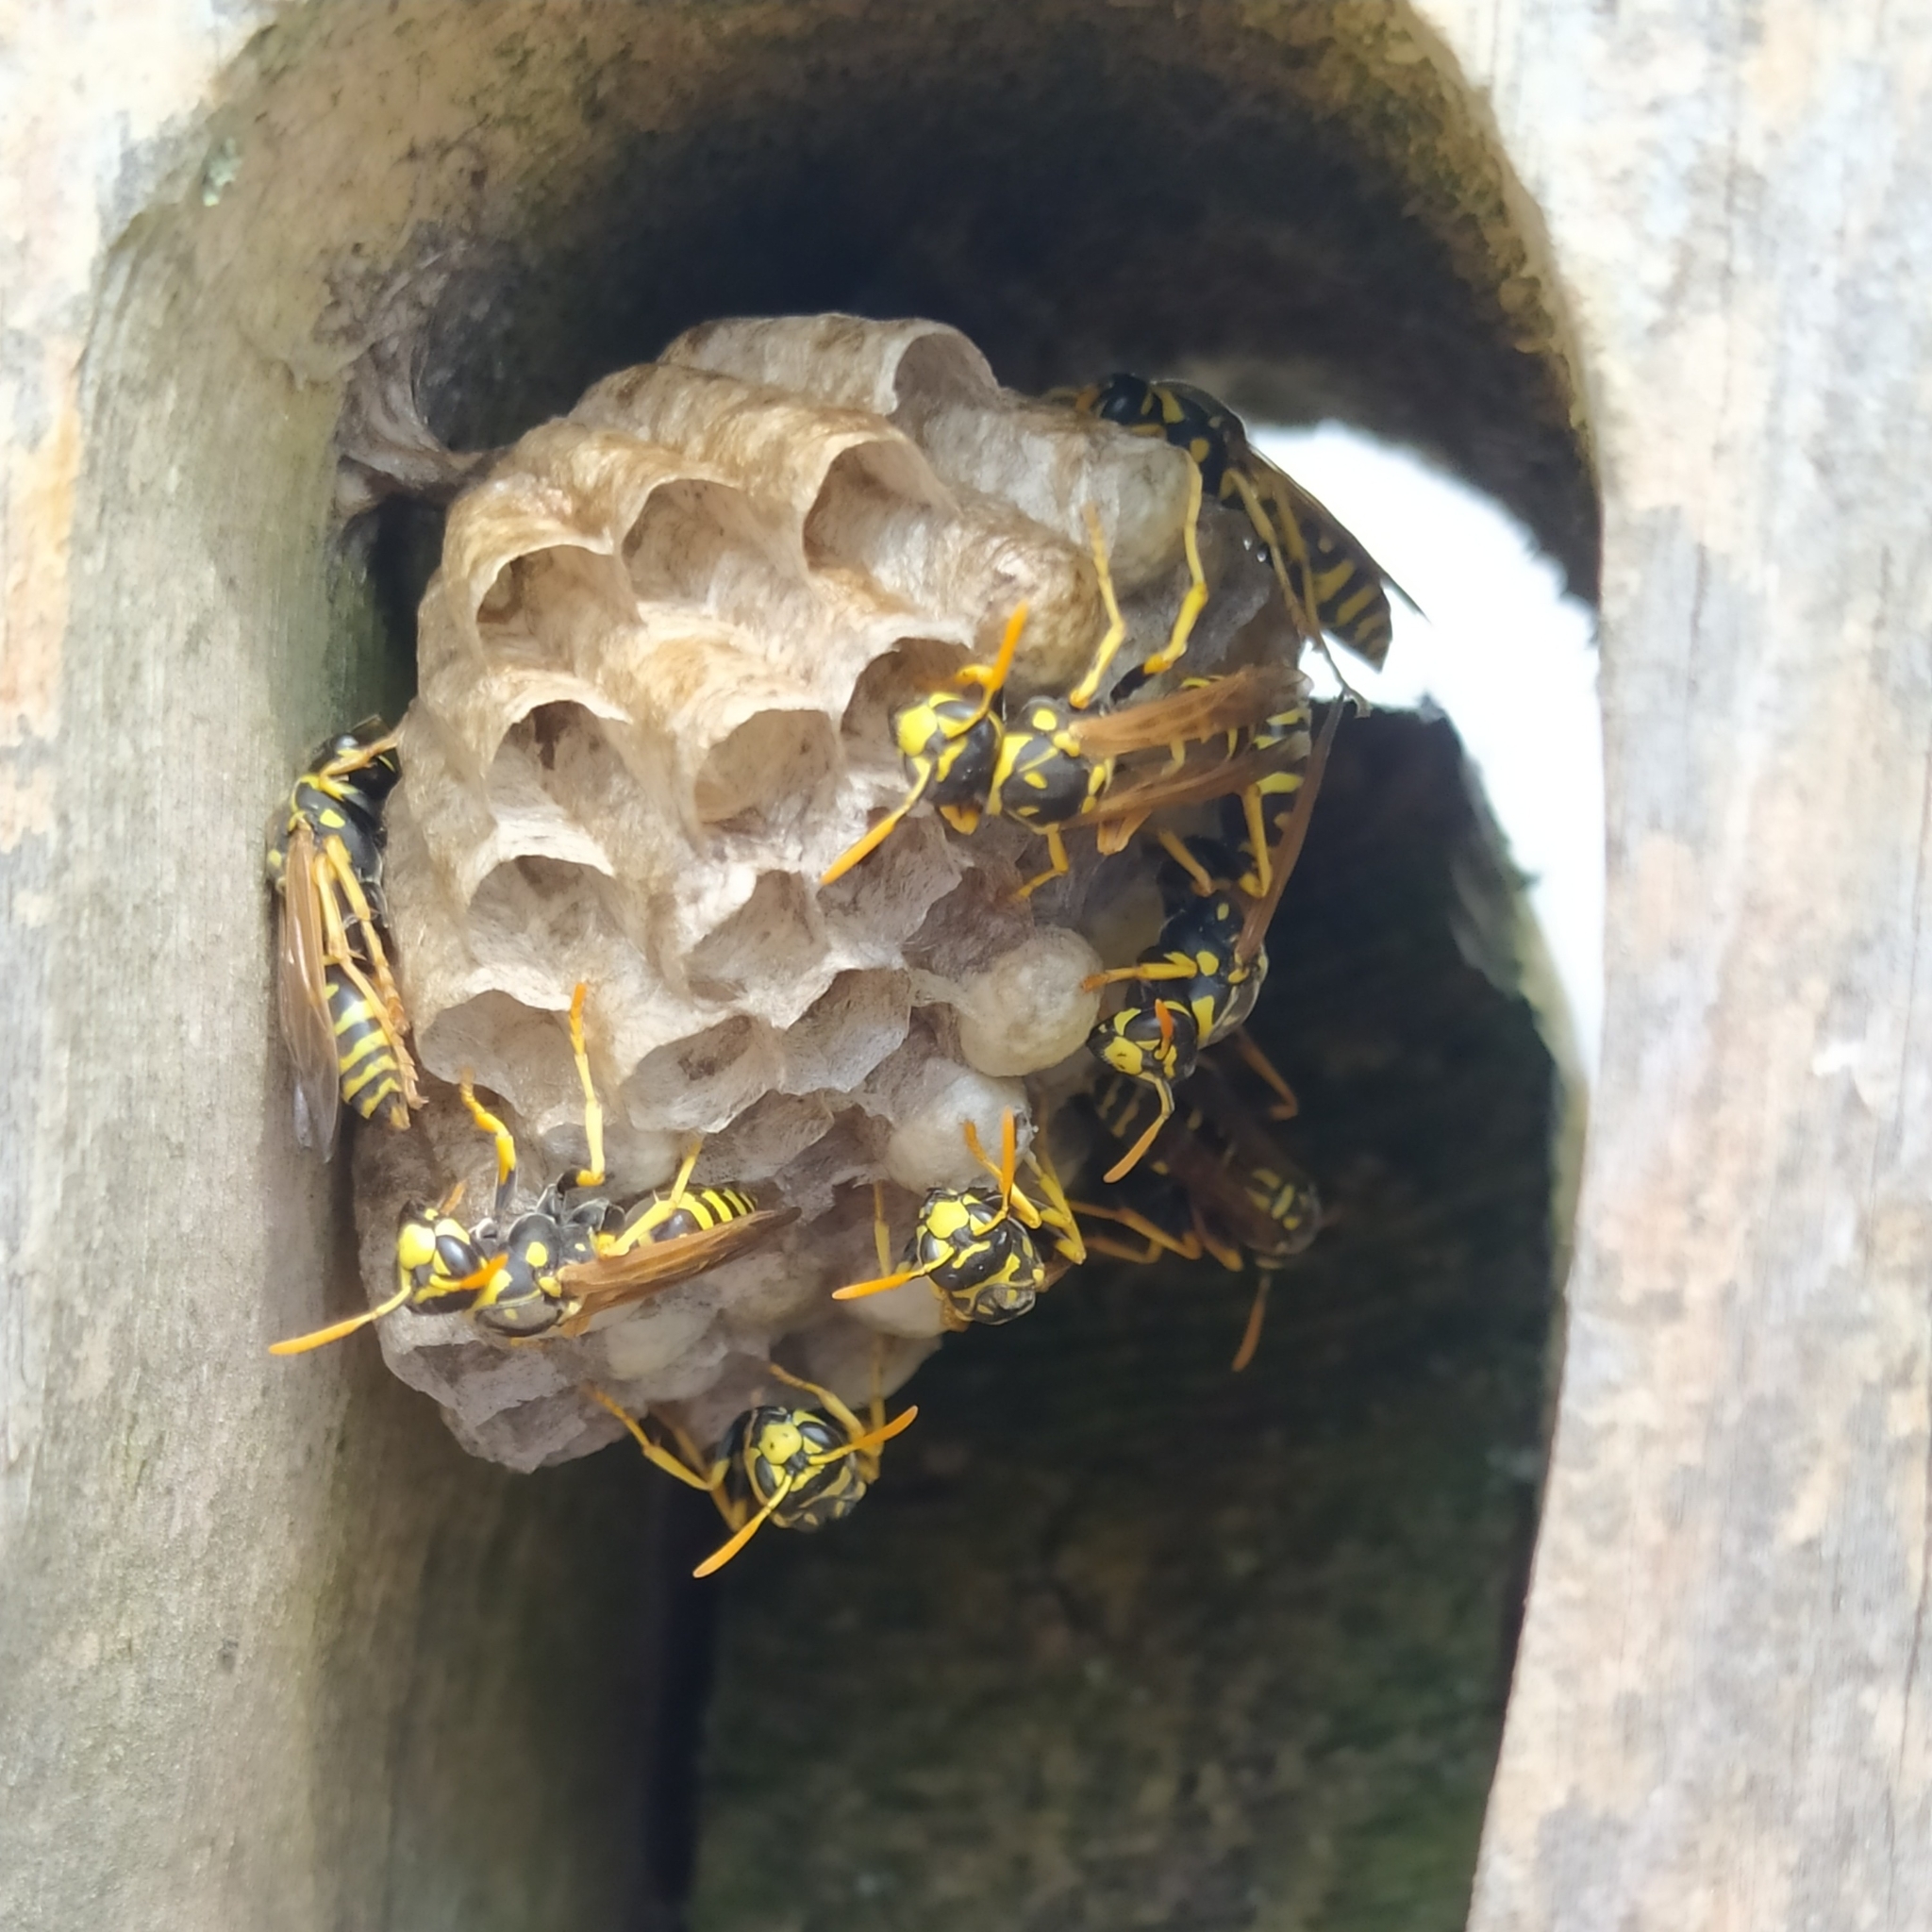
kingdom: Animalia
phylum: Arthropoda
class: Insecta
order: Hymenoptera
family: Eumenidae
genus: Polistes
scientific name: Polistes dominula
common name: Paper wasp
